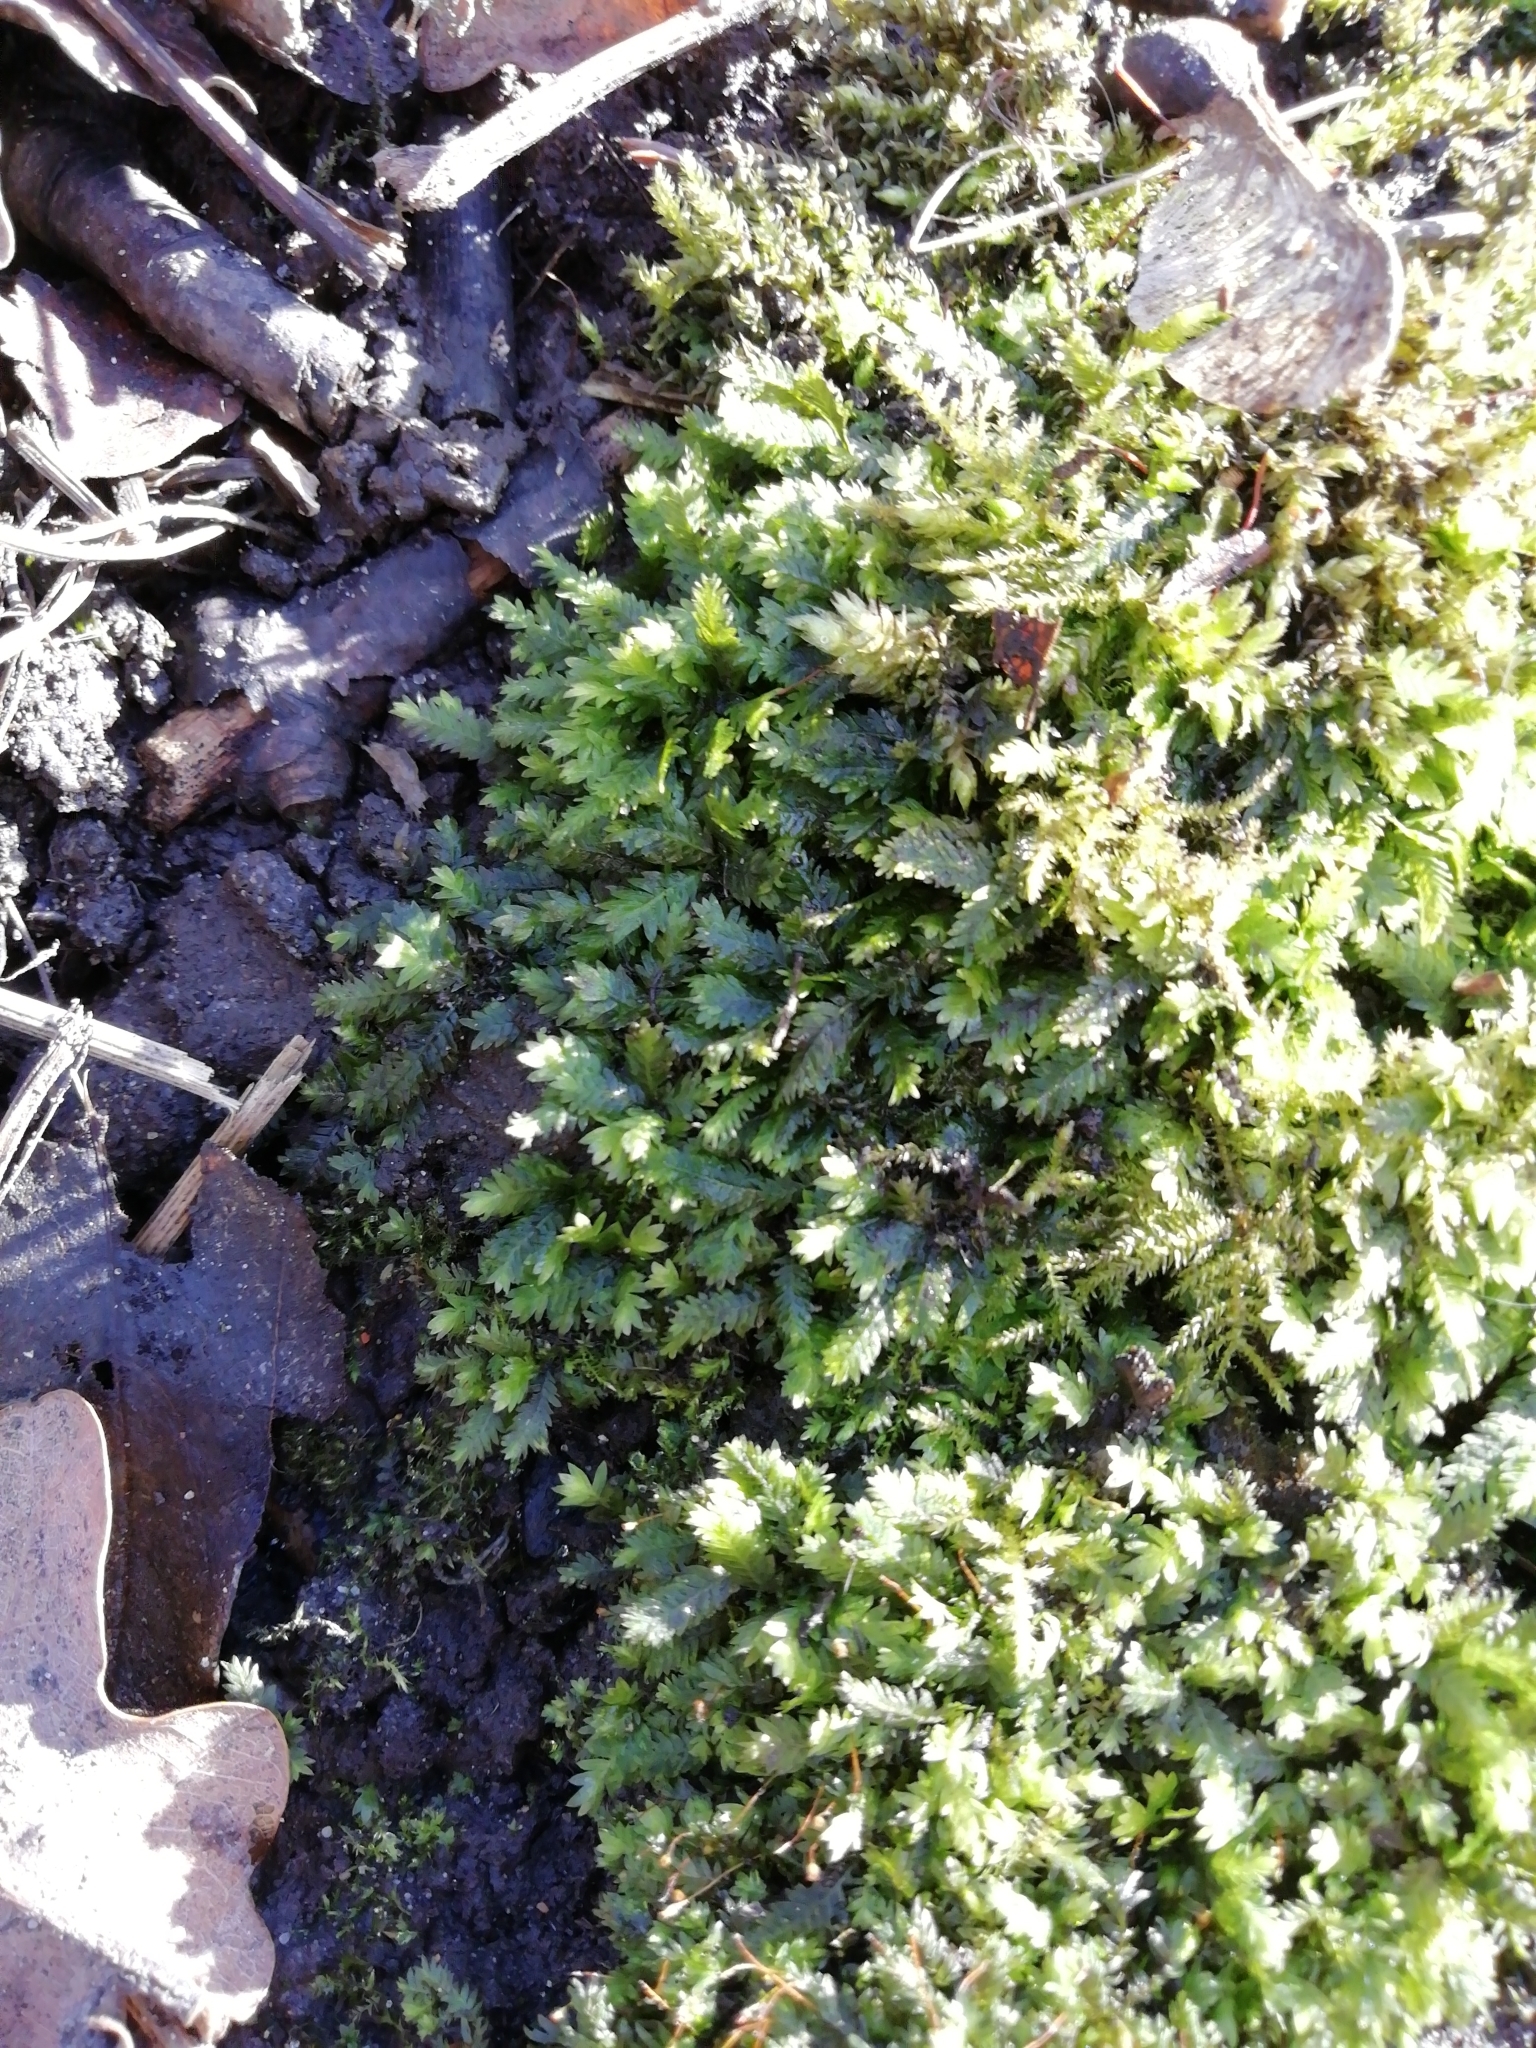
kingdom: Plantae
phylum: Bryophyta
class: Bryopsida
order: Dicranales
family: Fissidentaceae
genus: Fissidens
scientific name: Fissidens taxifolius
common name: Yew-leaved pocket moss
